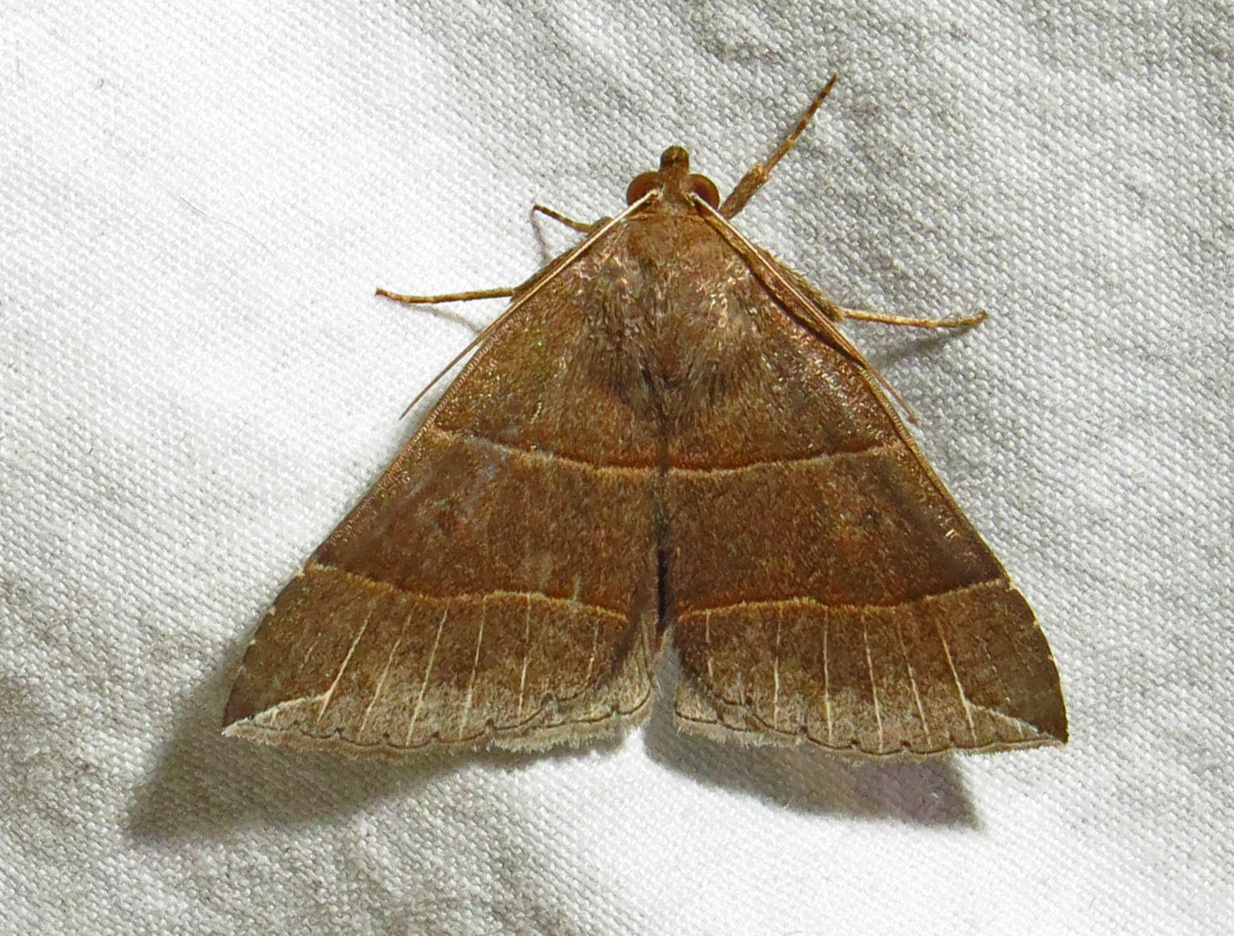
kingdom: Animalia
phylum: Arthropoda
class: Insecta
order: Lepidoptera
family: Erebidae
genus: Parallelia
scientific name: Parallelia bistriaris
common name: Maple looper moth
